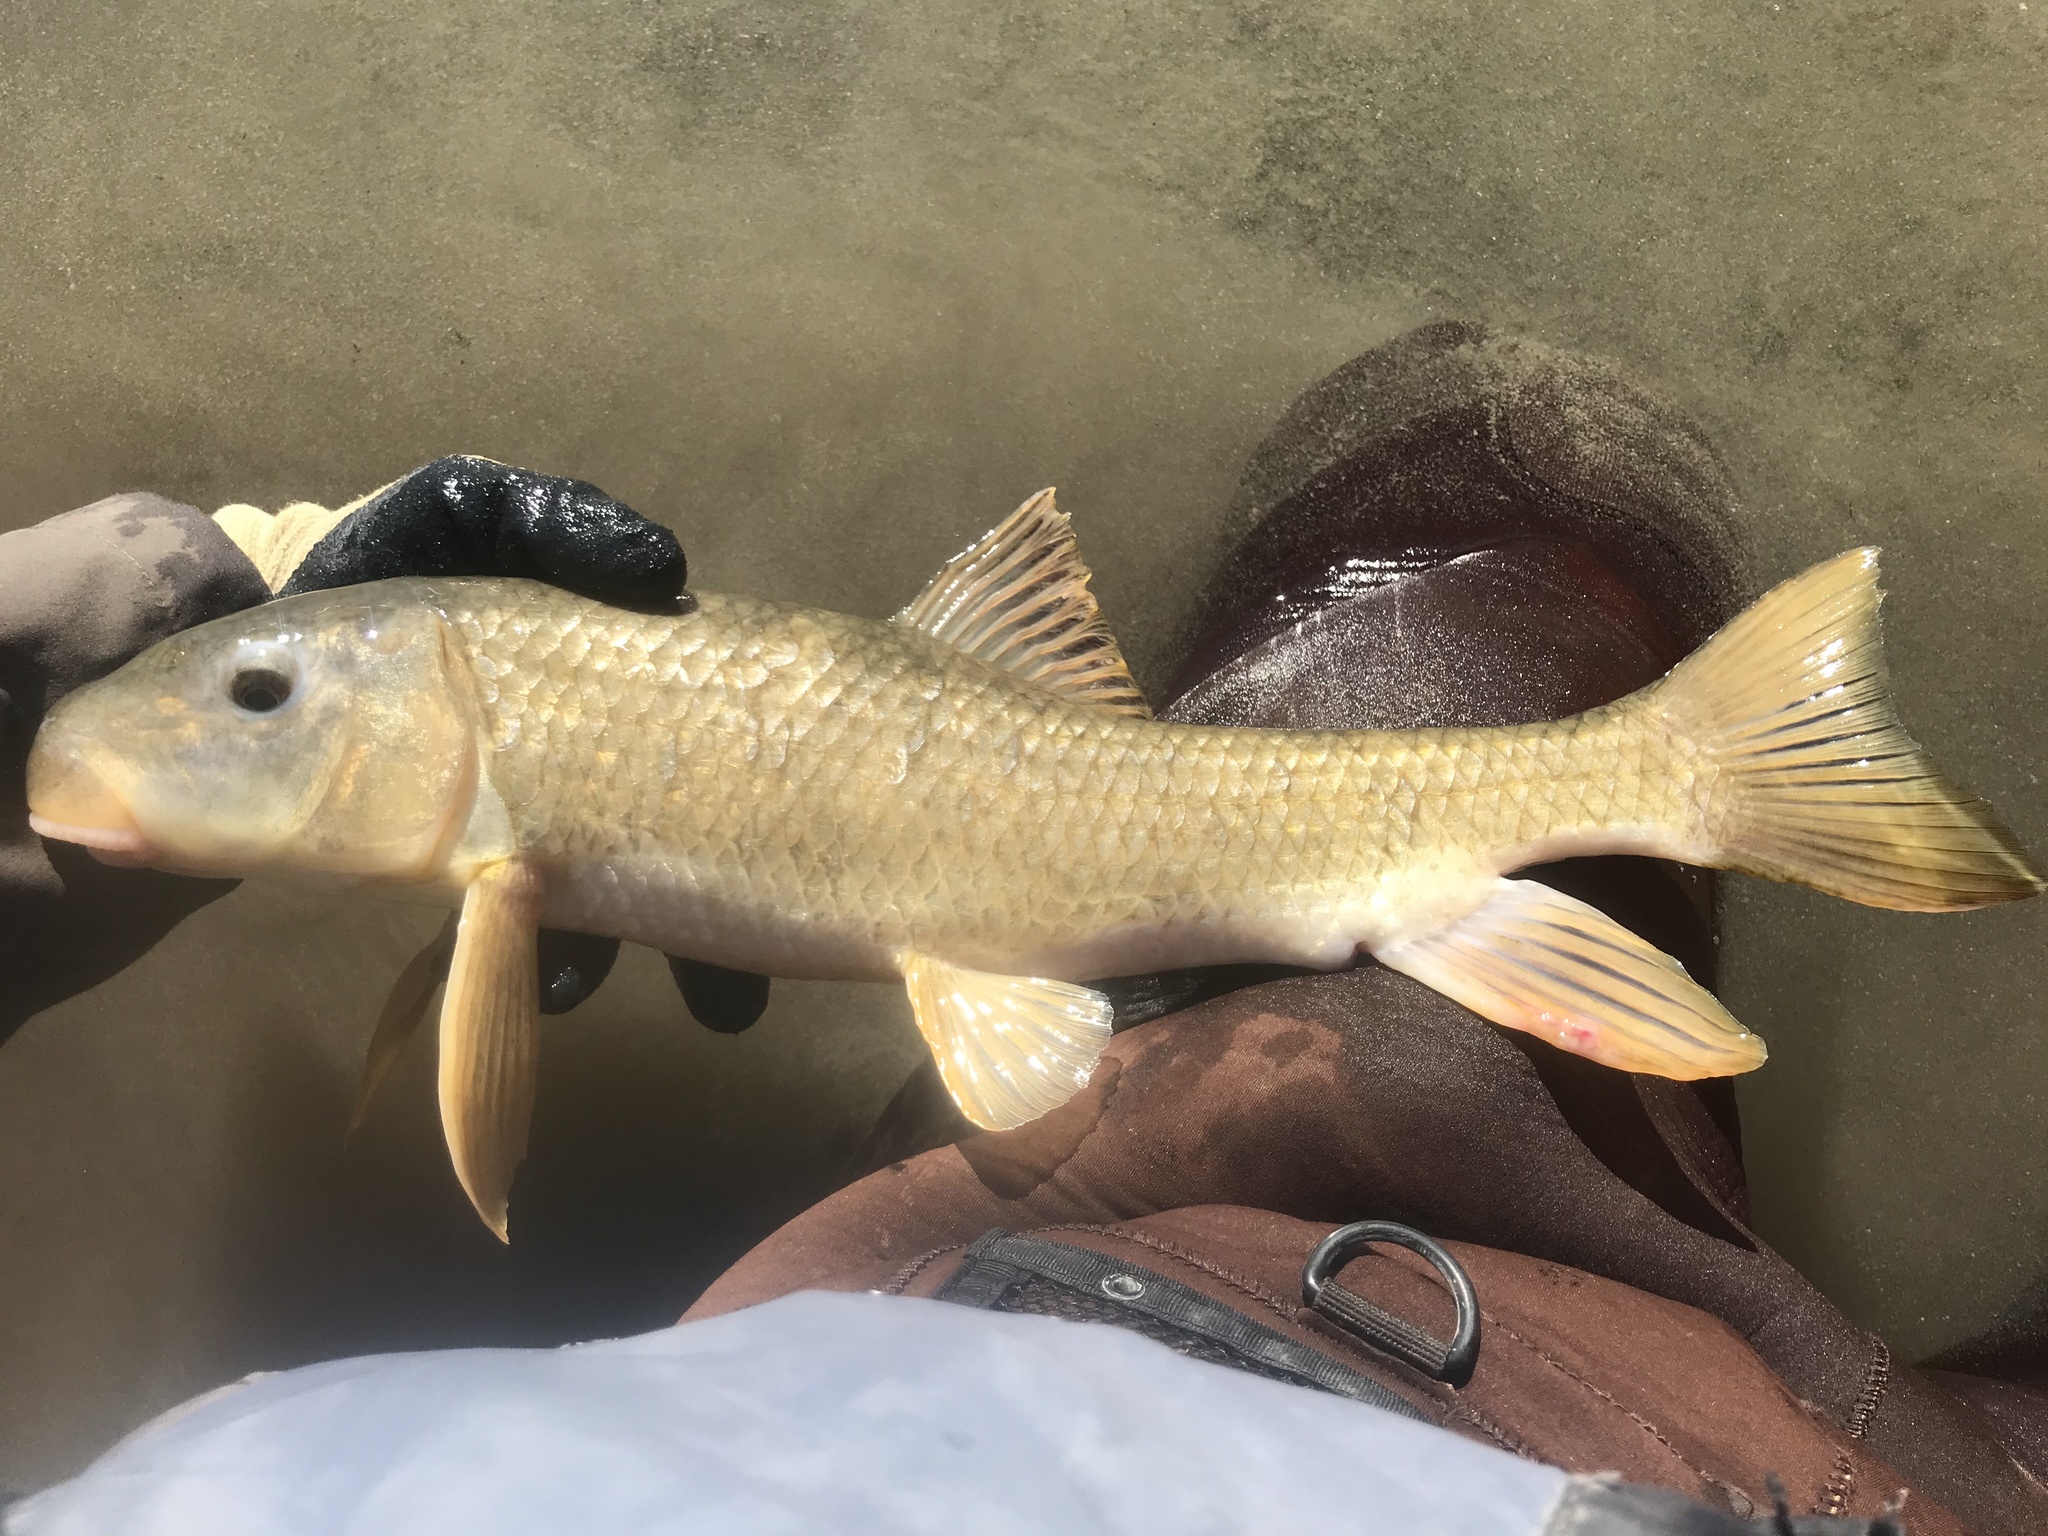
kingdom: Animalia
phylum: Chordata
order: Cypriniformes
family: Catostomidae
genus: Moxostoma
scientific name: Moxostoma congestum
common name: Gray redhorse
